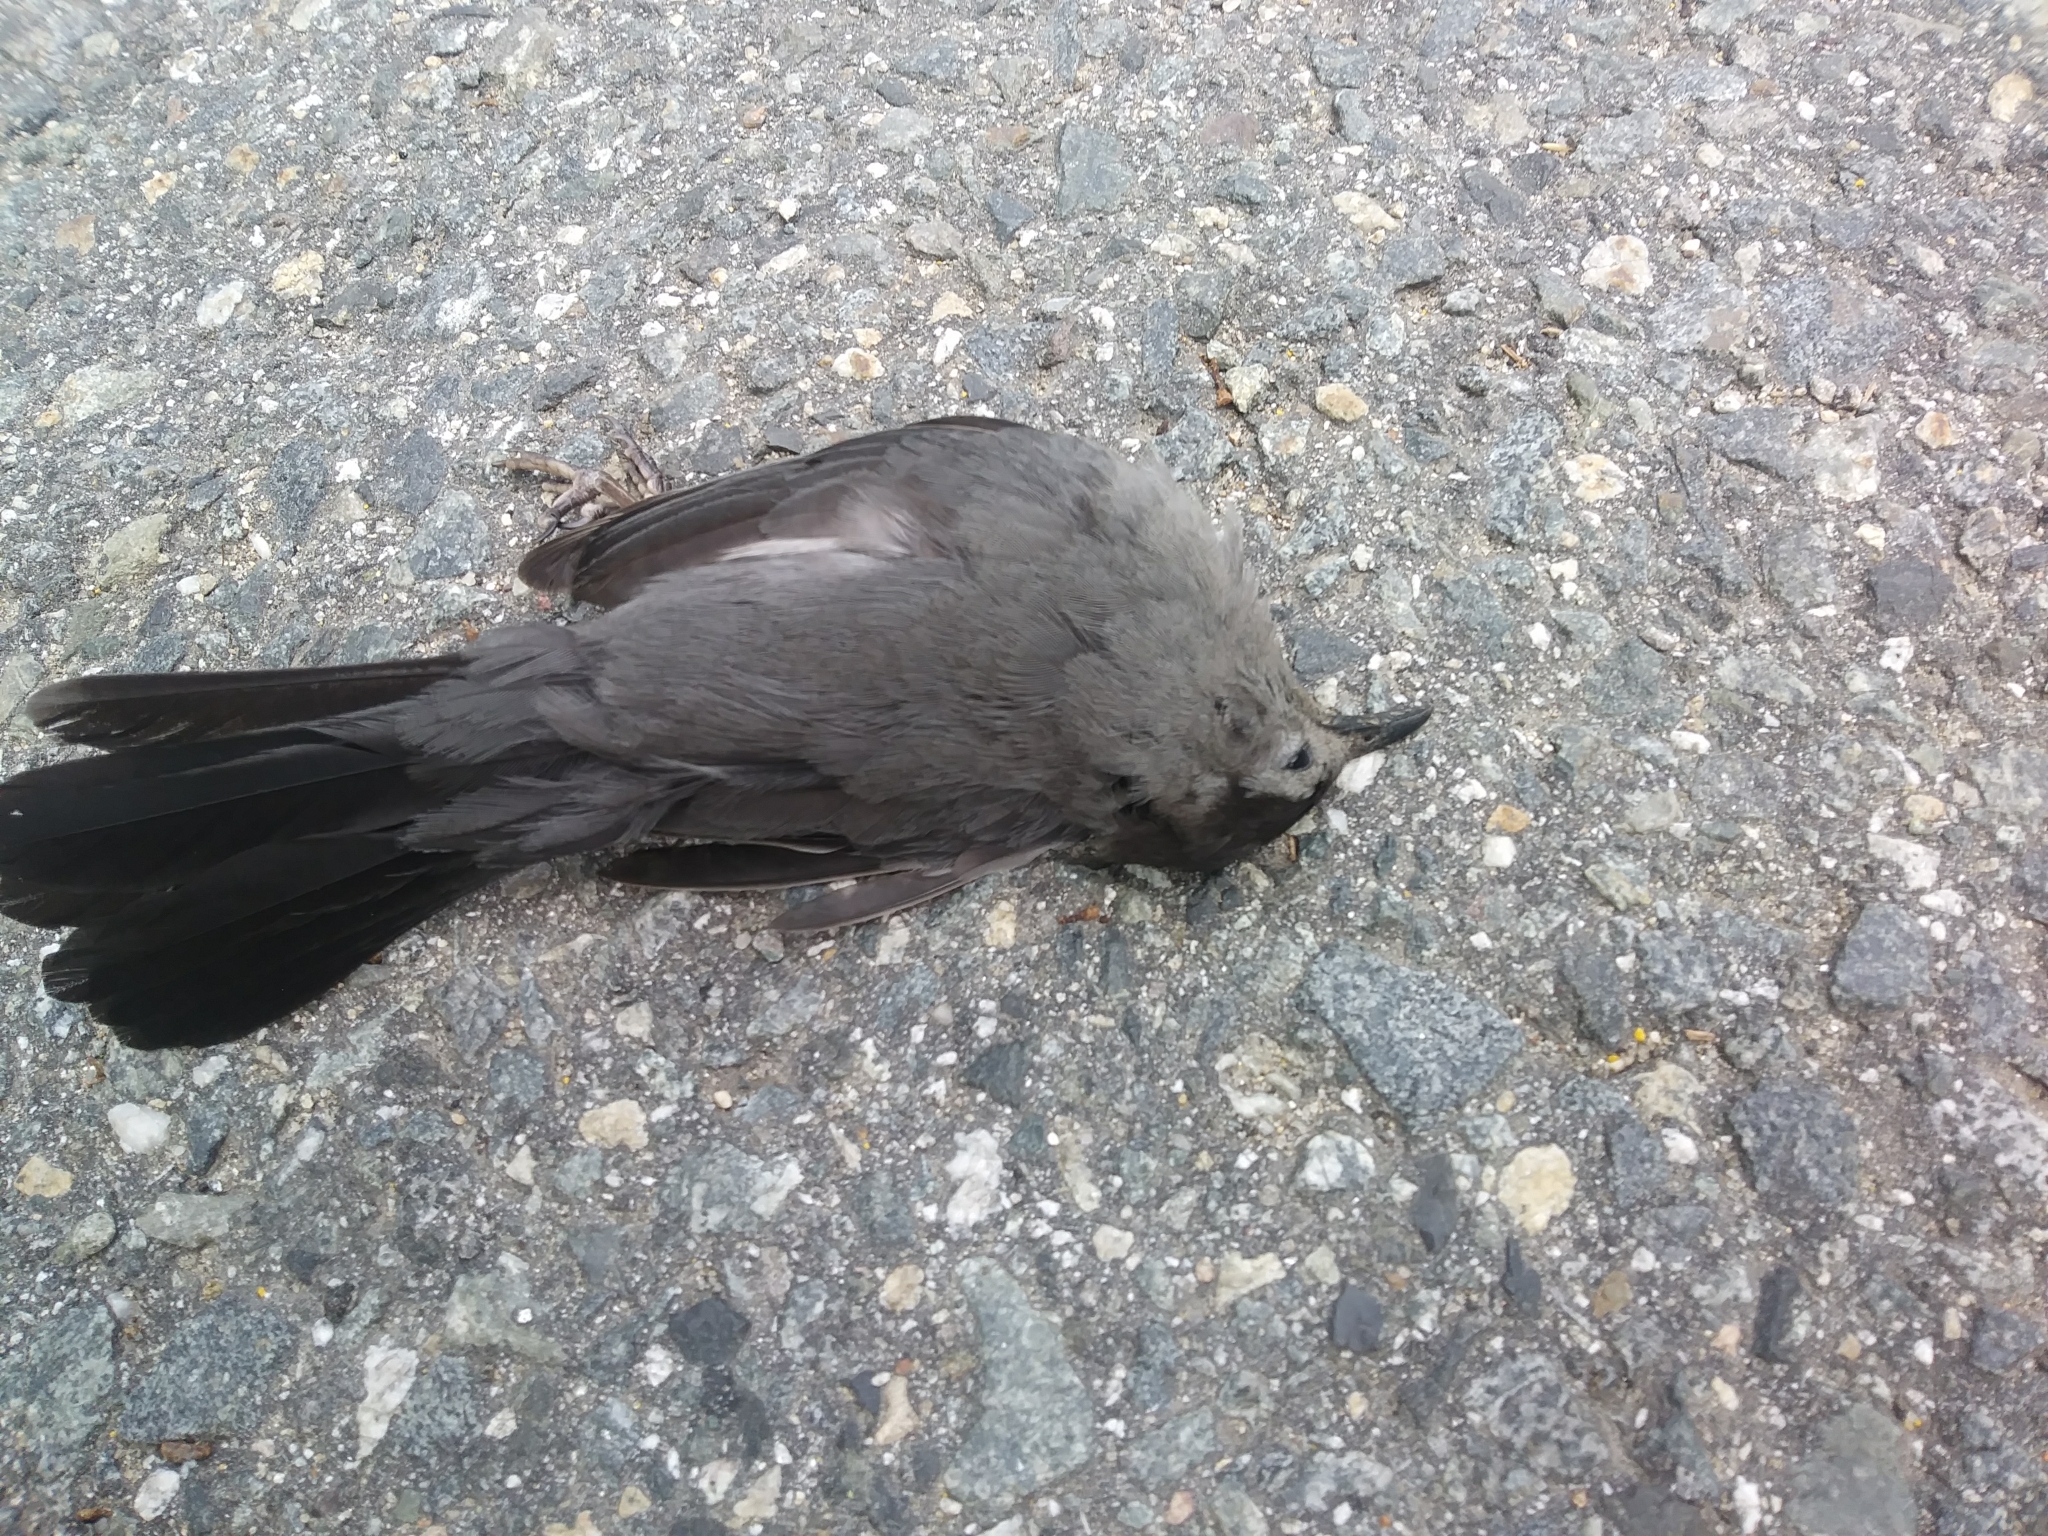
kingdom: Animalia
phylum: Chordata
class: Aves
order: Passeriformes
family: Mimidae
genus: Dumetella
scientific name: Dumetella carolinensis
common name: Gray catbird
